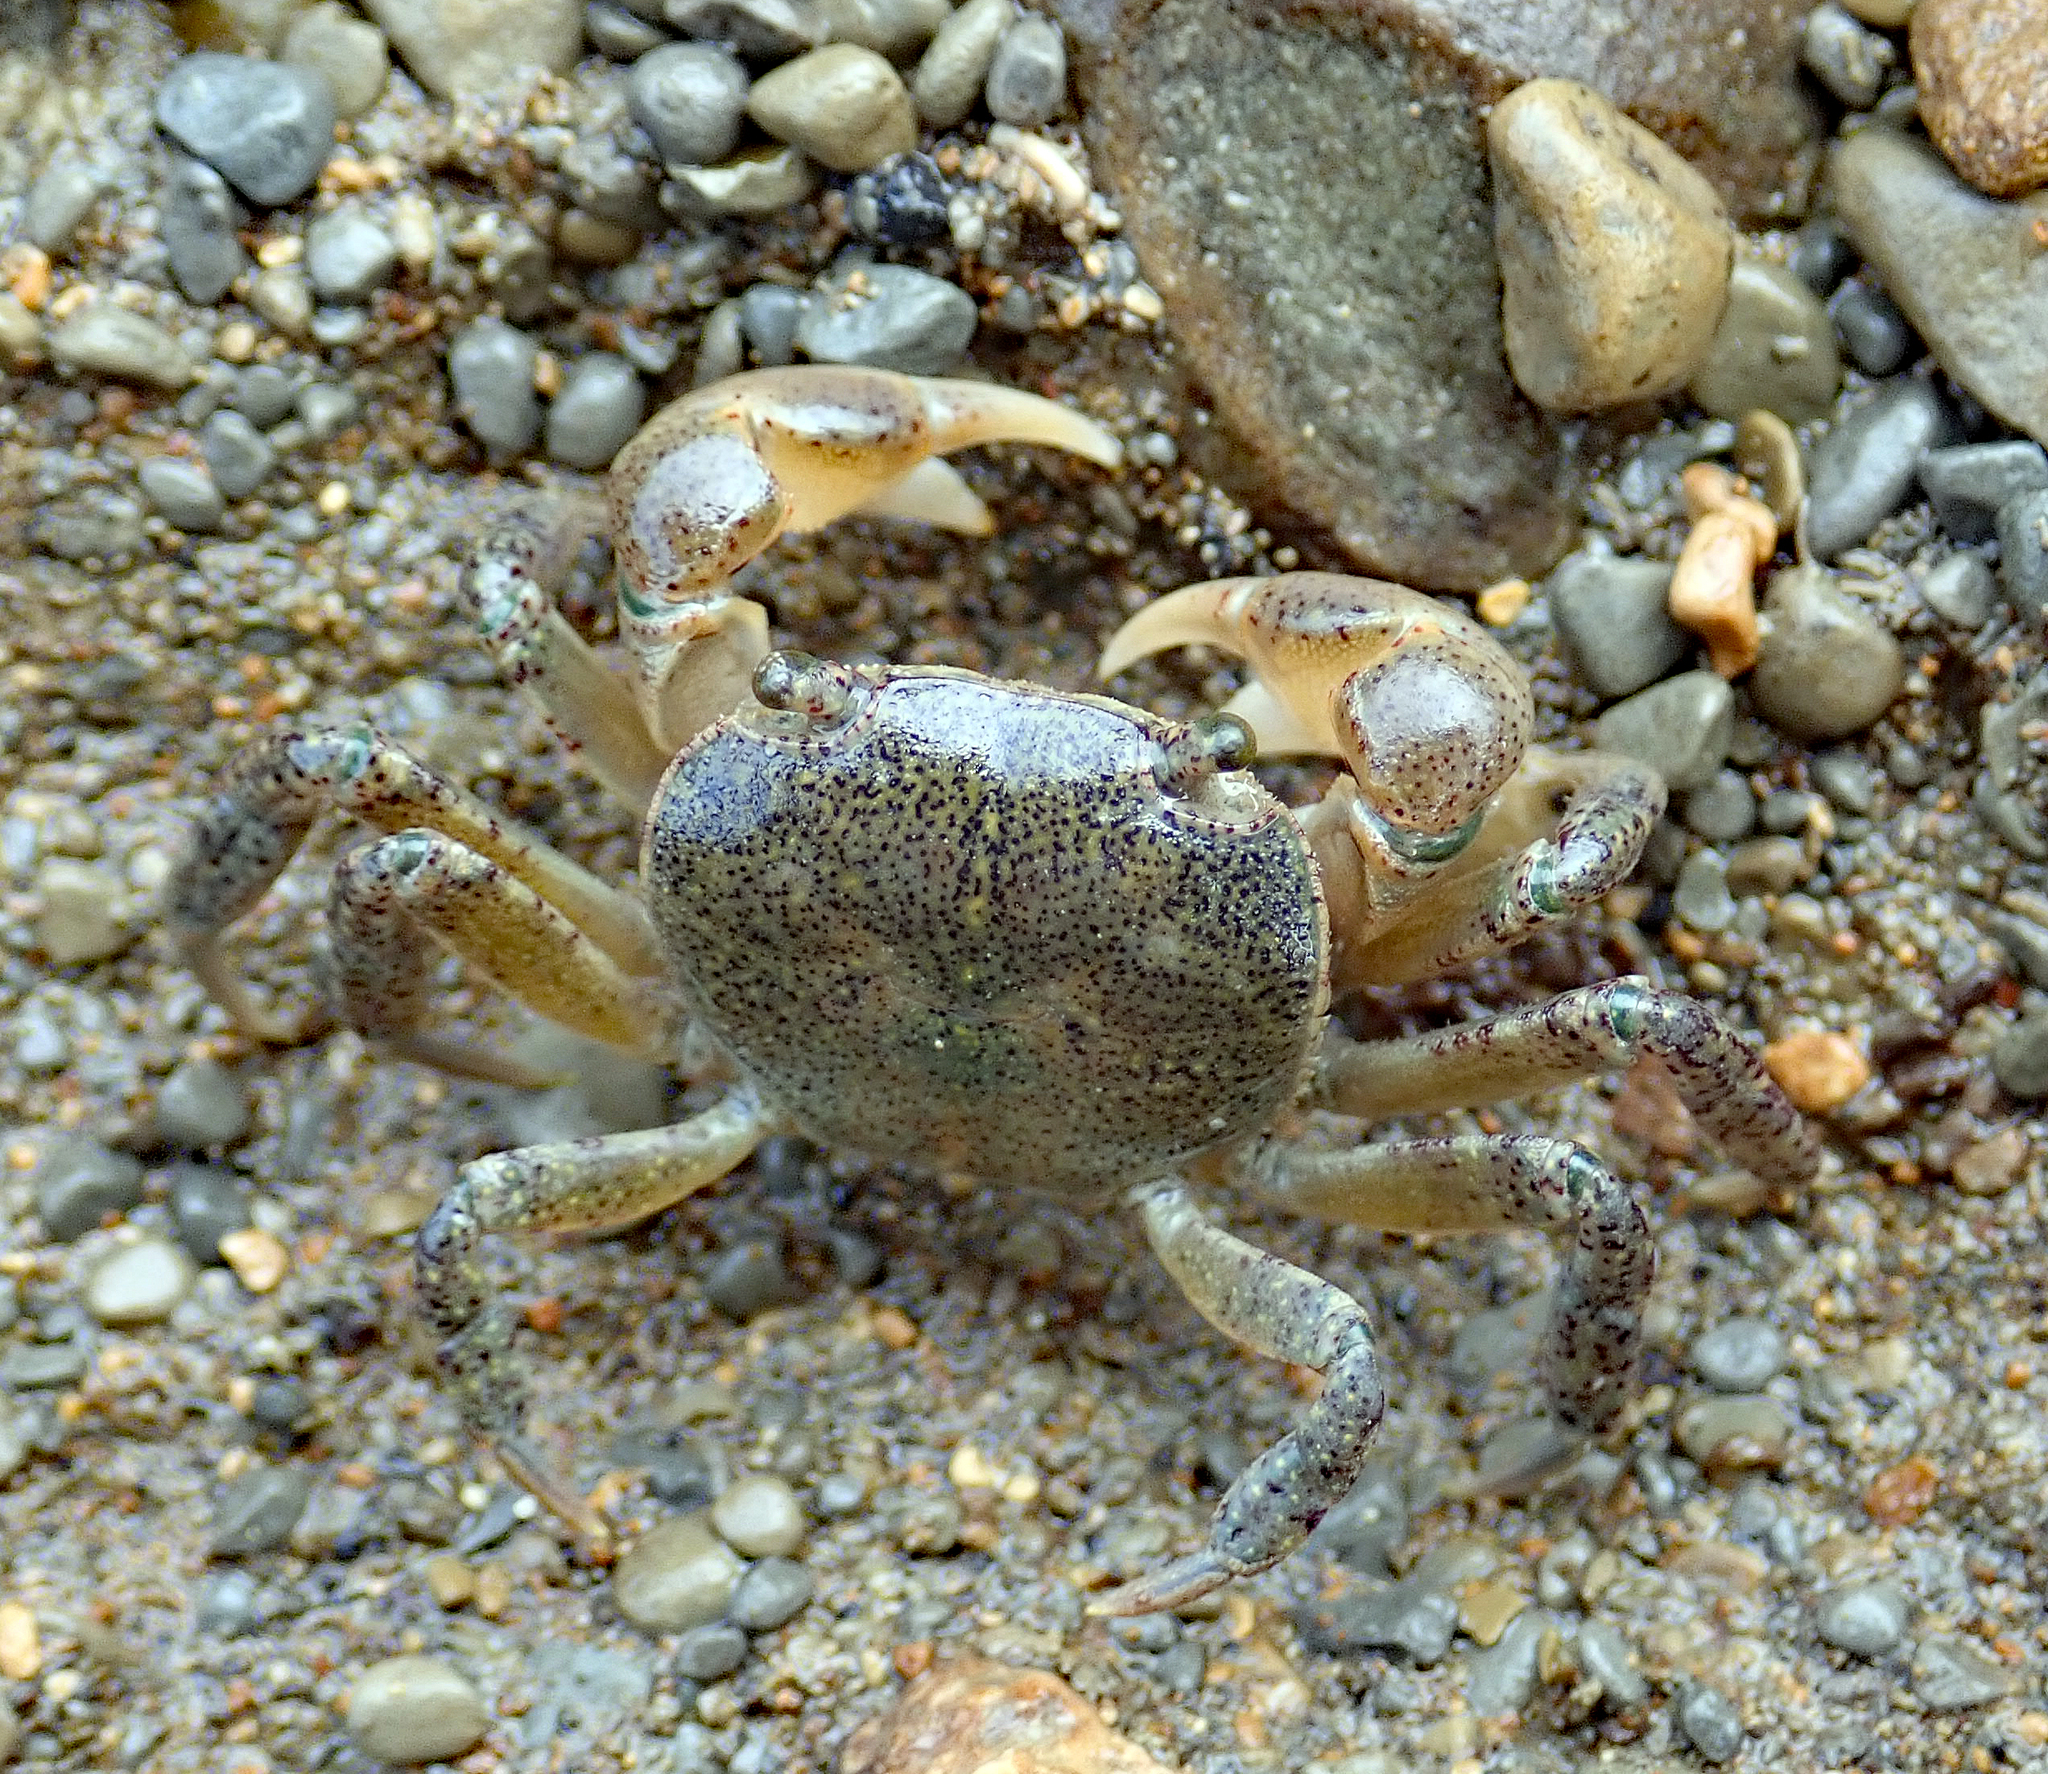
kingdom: Animalia
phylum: Arthropoda
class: Malacostraca
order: Decapoda
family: Varunidae
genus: Cyclograpsus
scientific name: Cyclograpsus lavauxi
